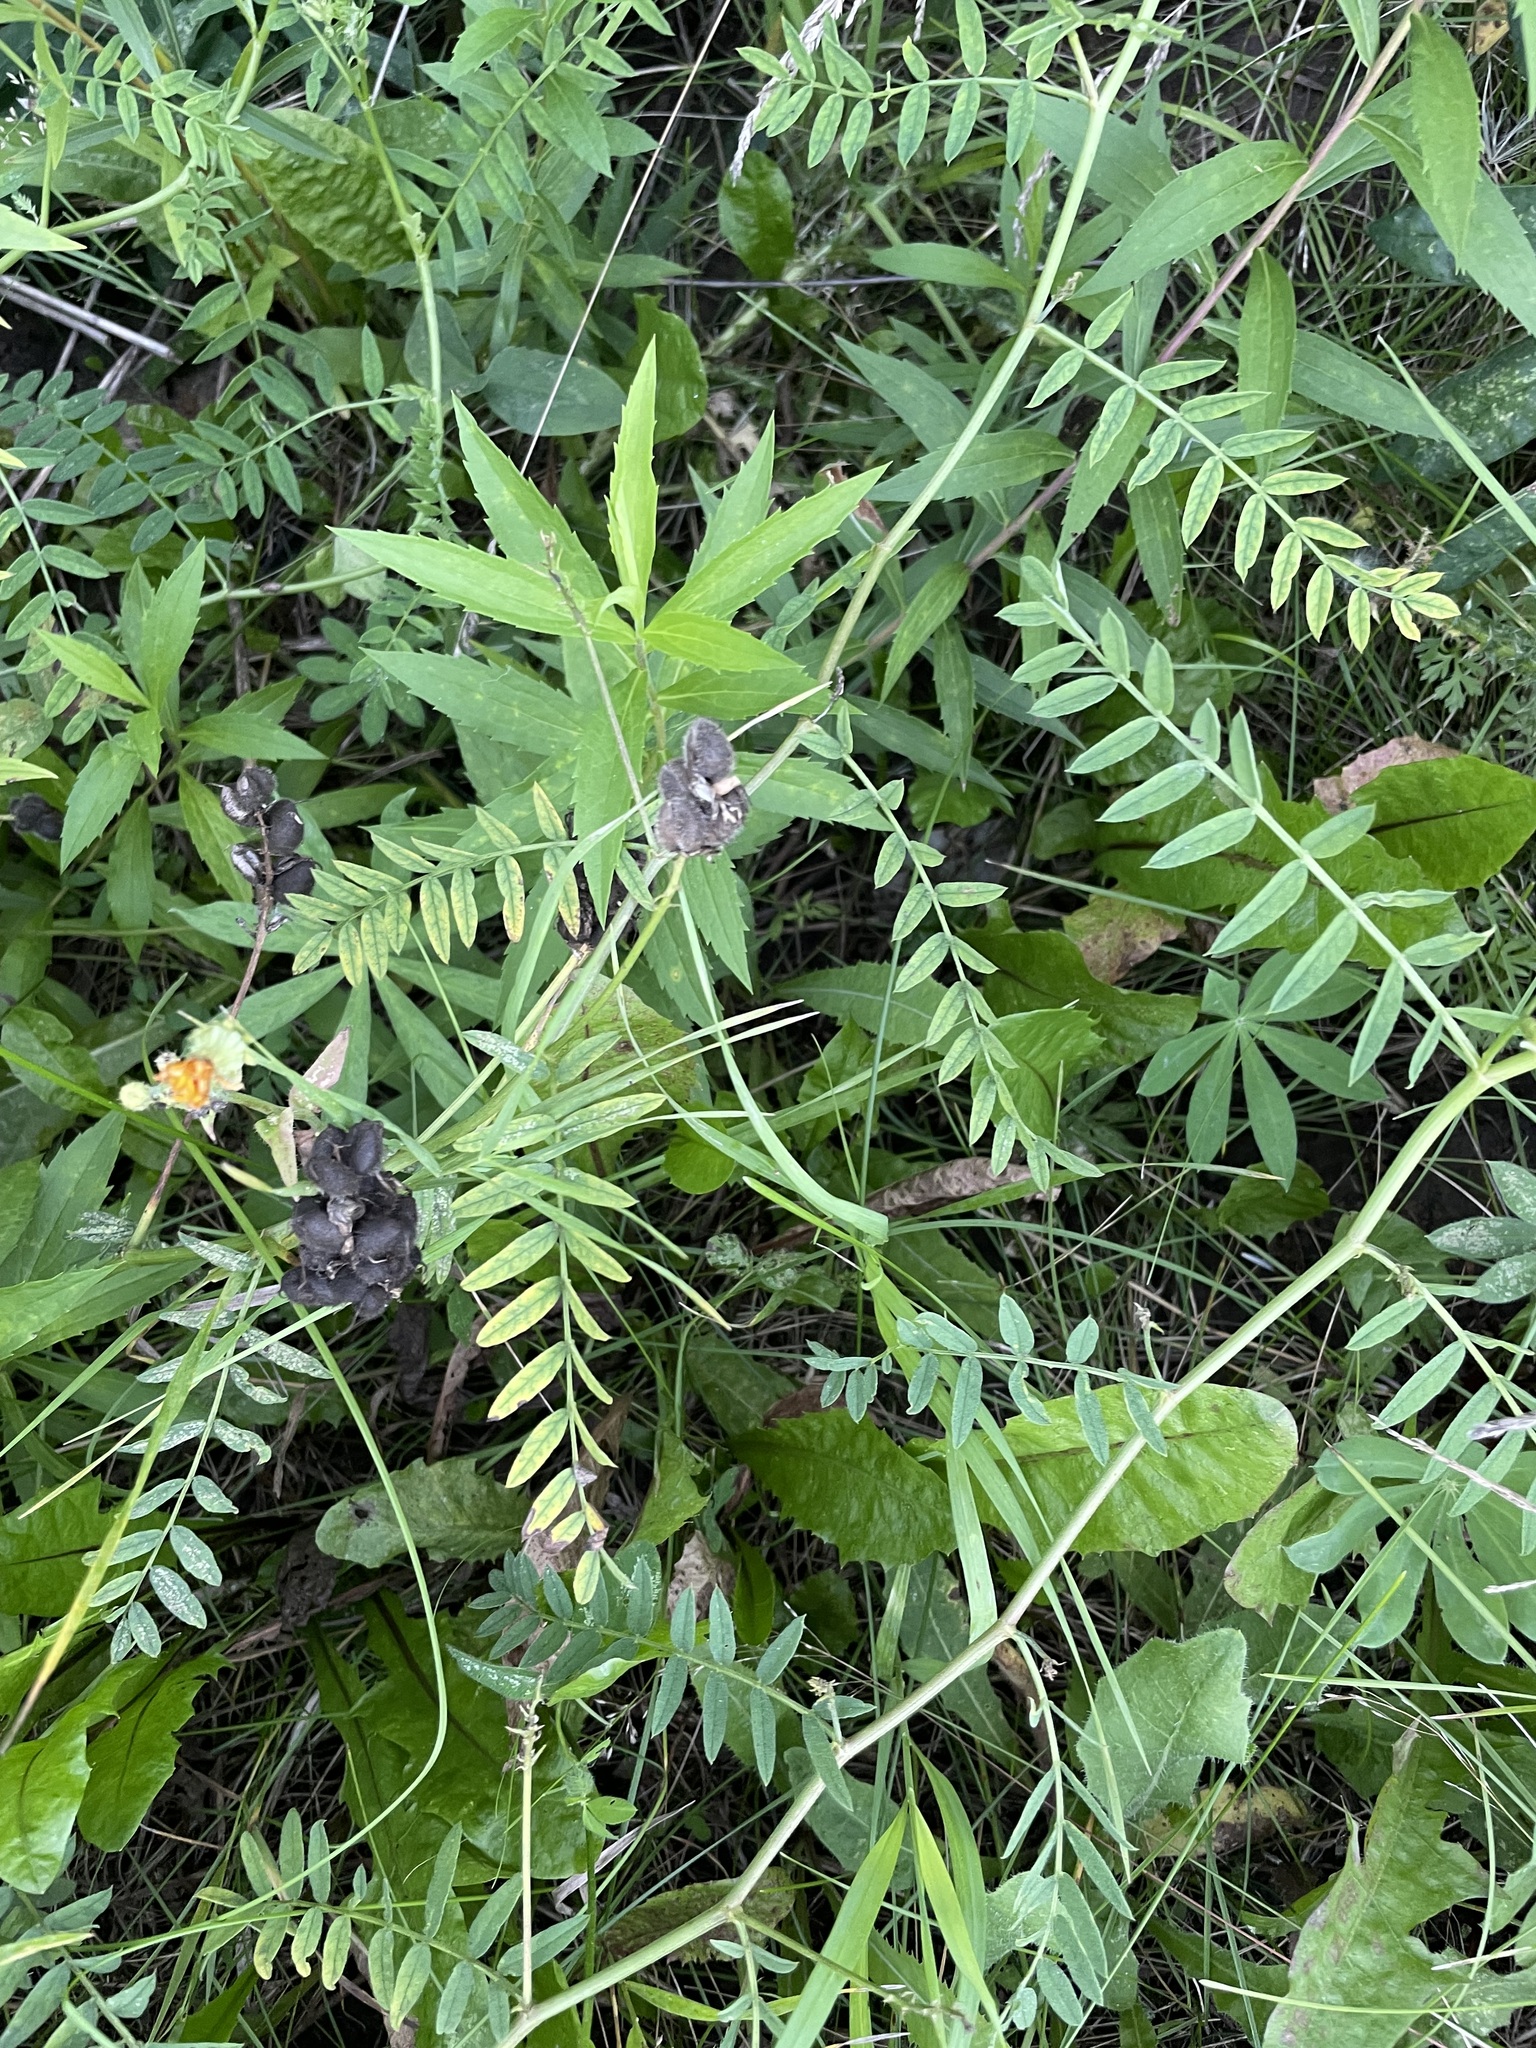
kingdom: Plantae
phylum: Tracheophyta
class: Magnoliopsida
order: Fabales
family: Fabaceae
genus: Astragalus
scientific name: Astragalus cicer
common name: Chick-pea milk-vetch
